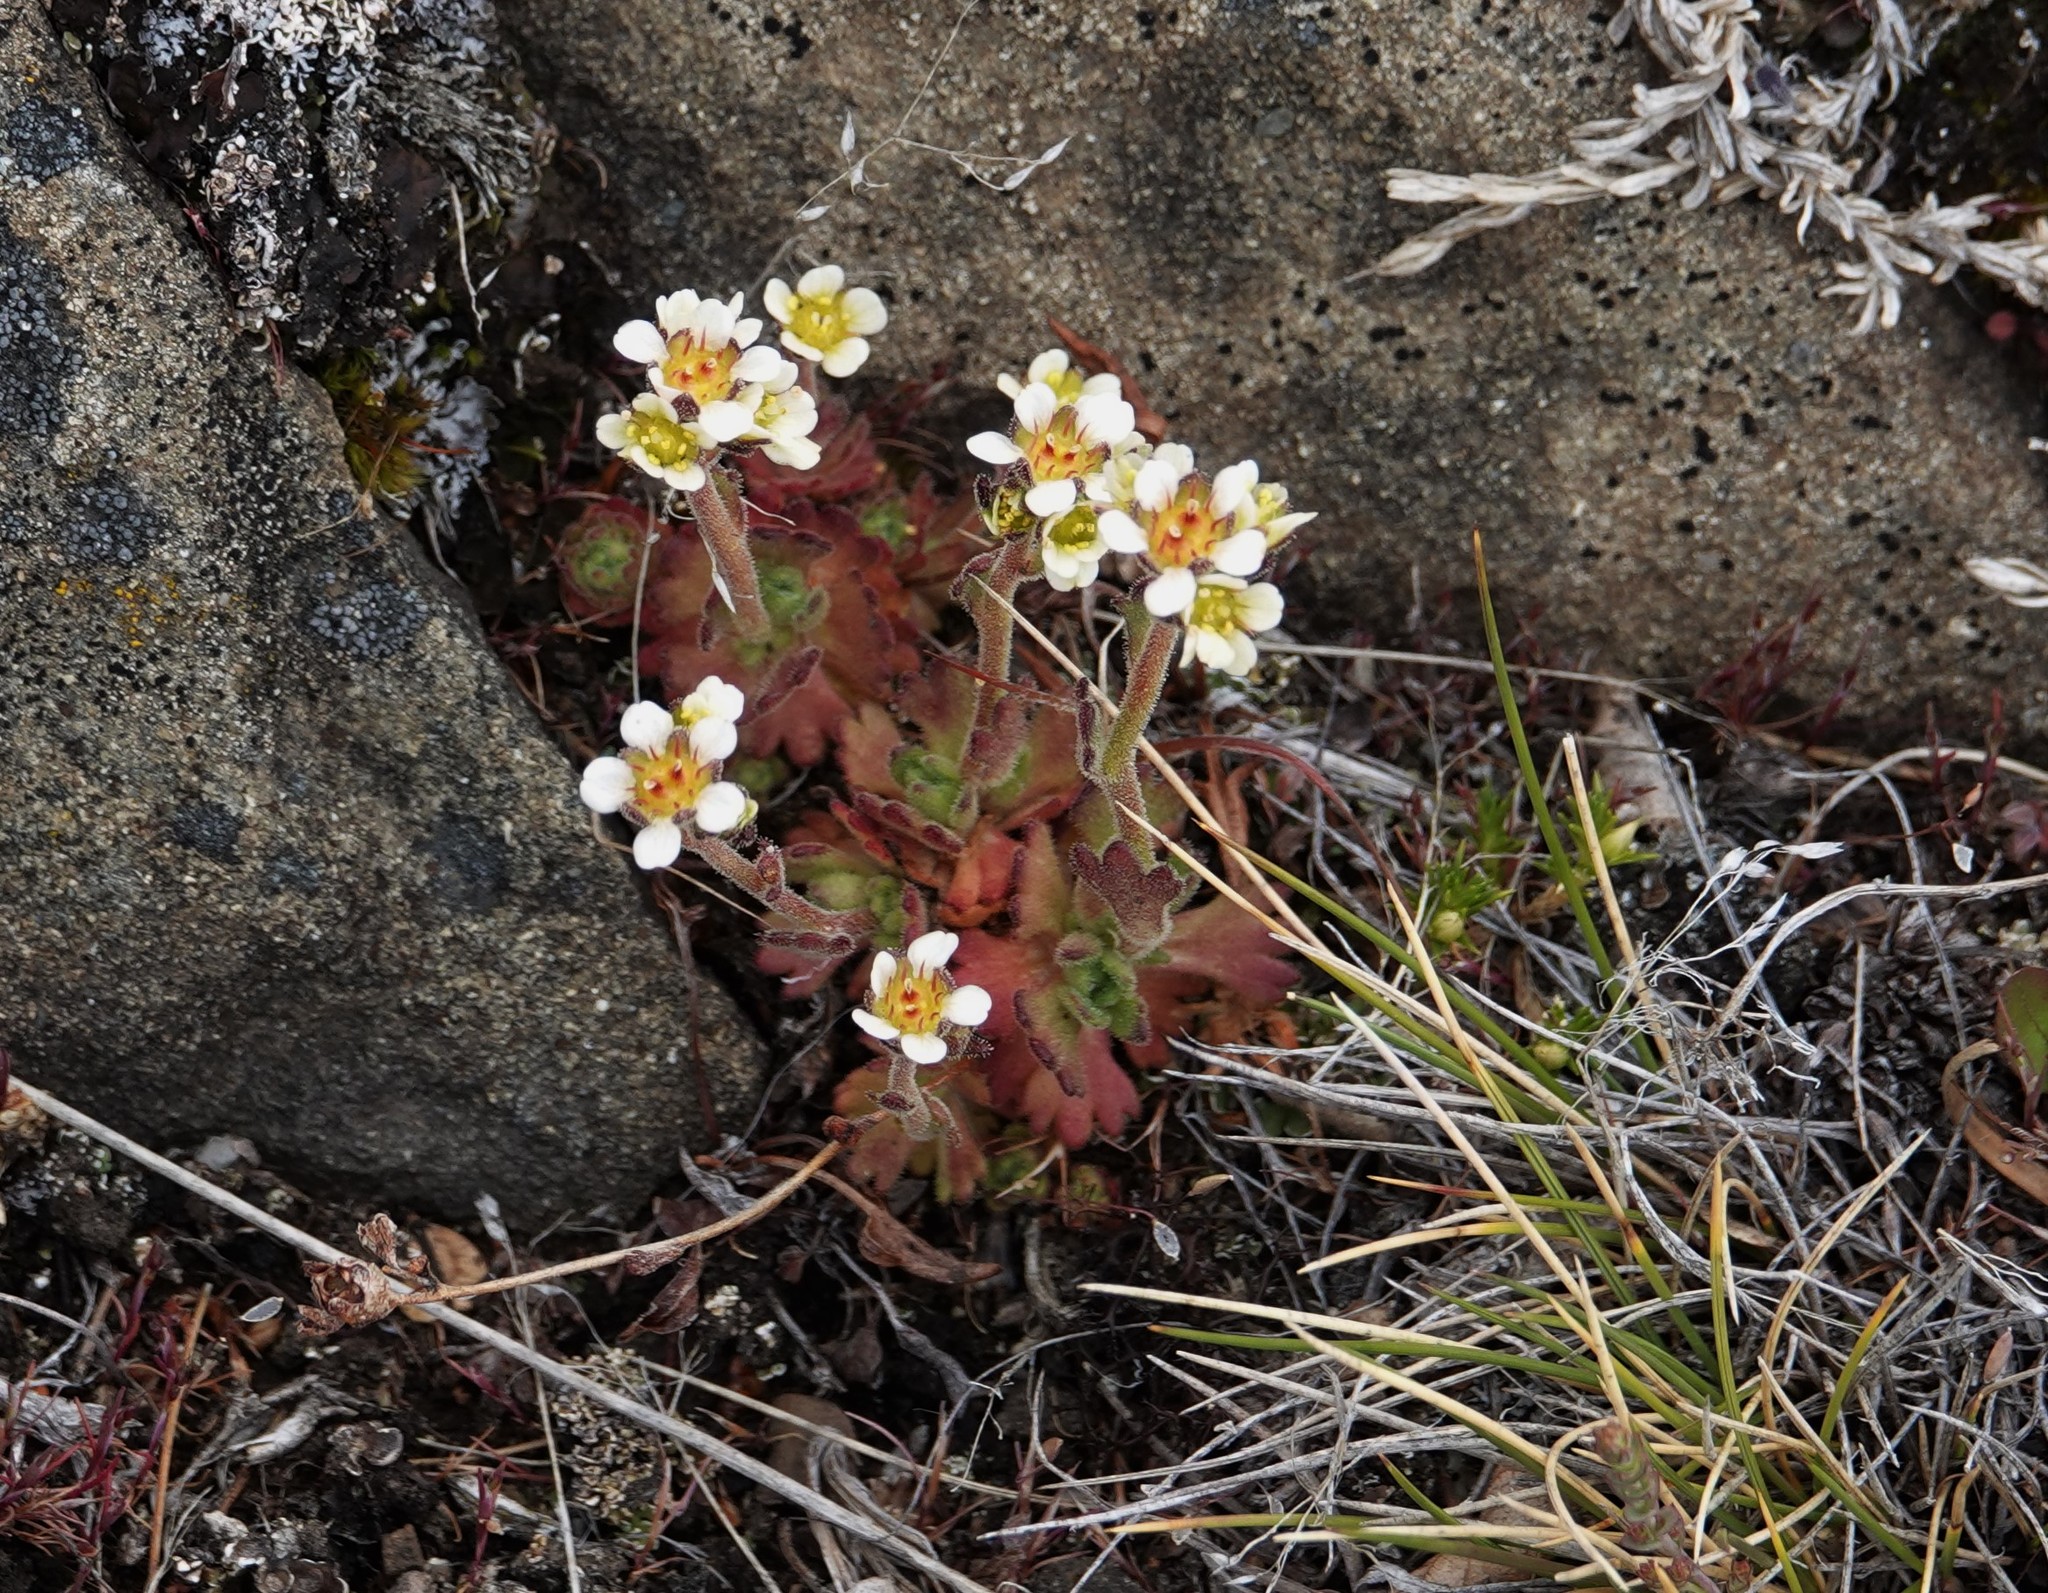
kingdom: Plantae
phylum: Tracheophyta
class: Magnoliopsida
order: Saxifragales
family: Saxifragaceae
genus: Saxifraga
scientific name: Saxifraga magellanica
